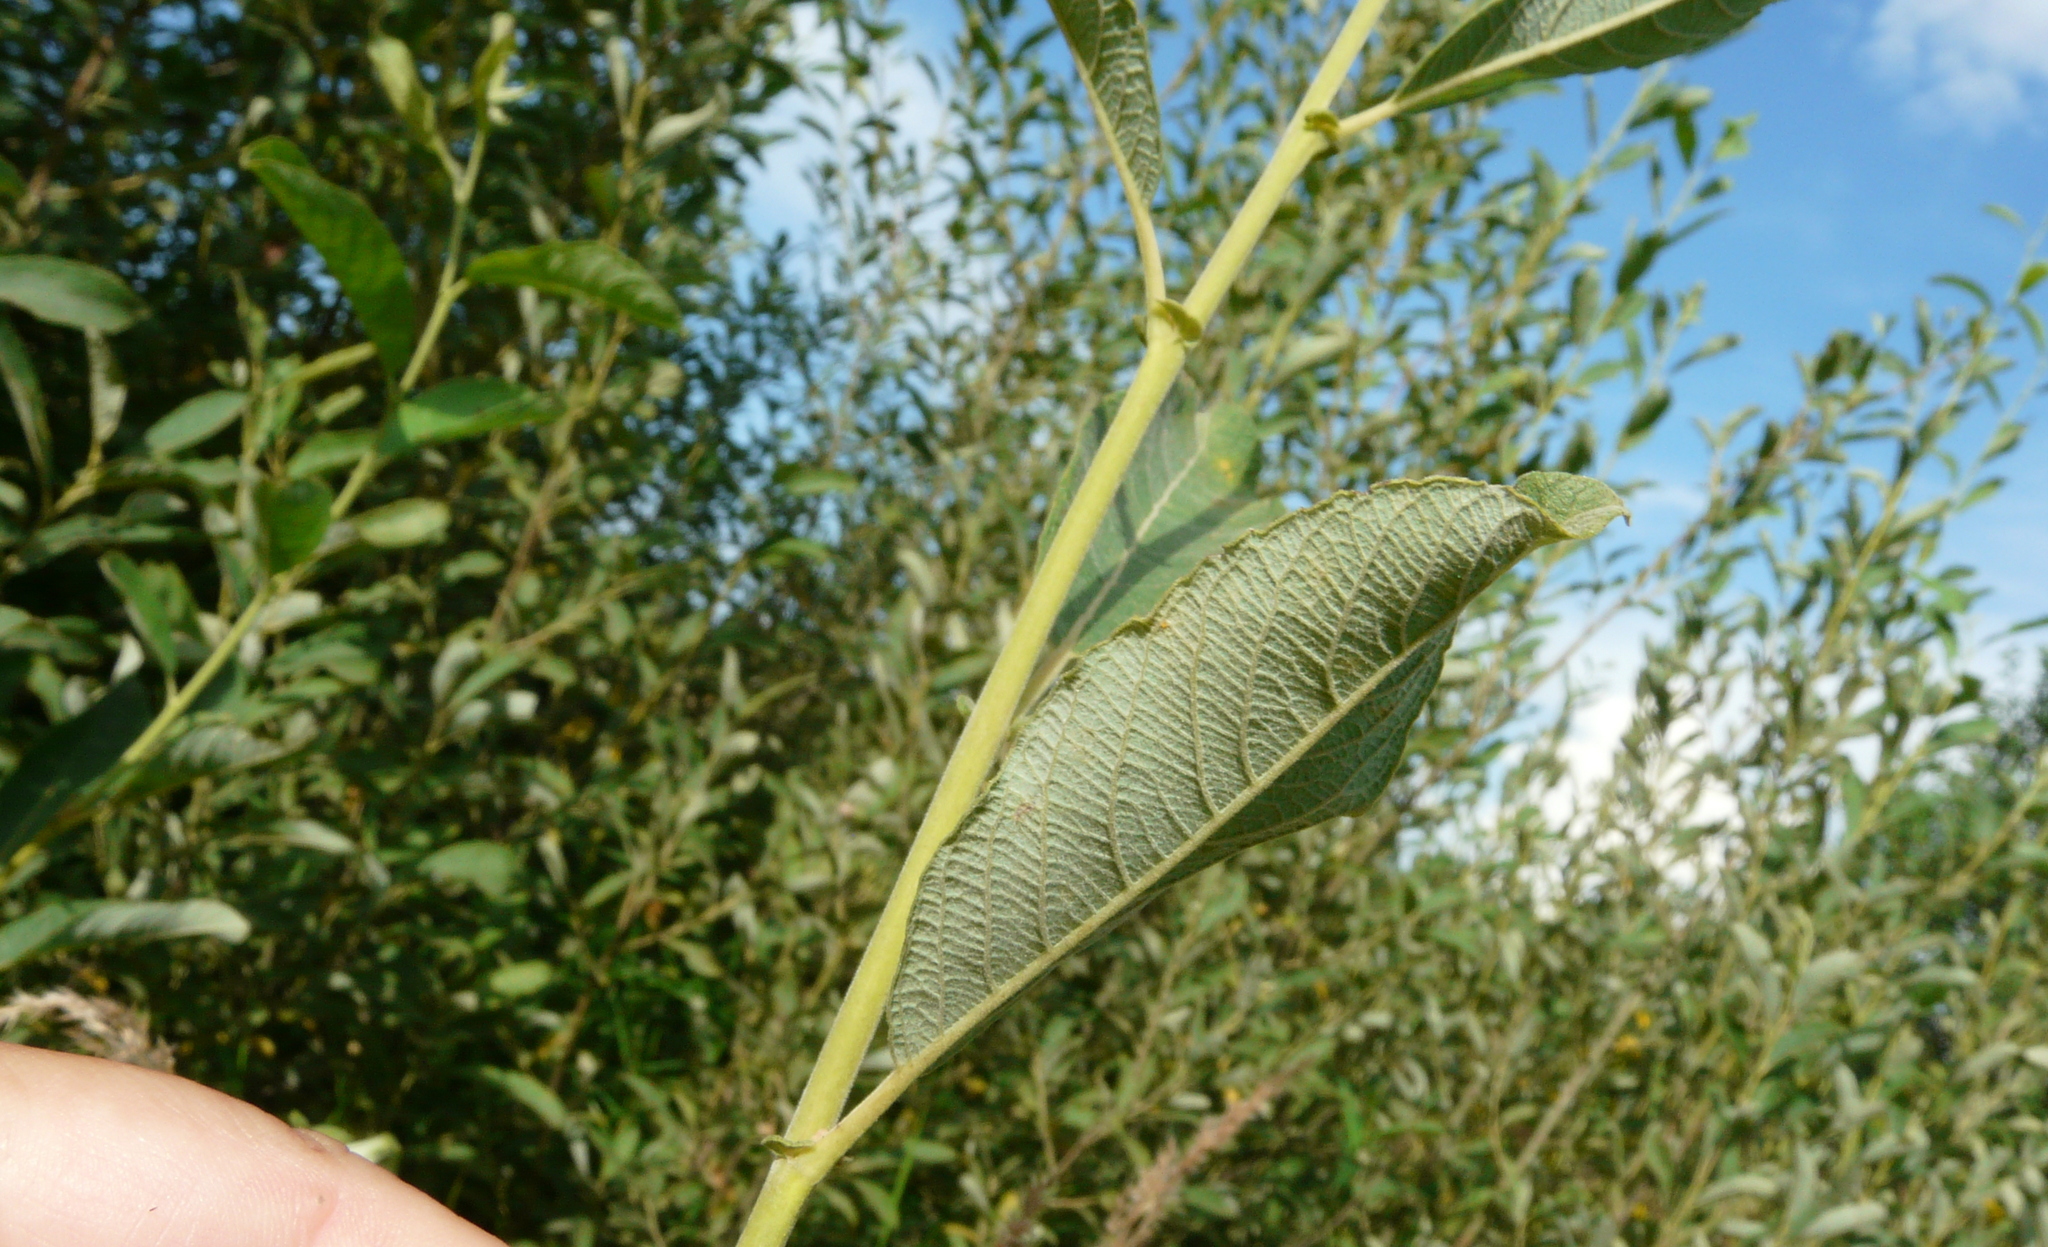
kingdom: Plantae
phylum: Tracheophyta
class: Magnoliopsida
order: Malpighiales
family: Salicaceae
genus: Salix
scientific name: Salix cinerea
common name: Common sallow
